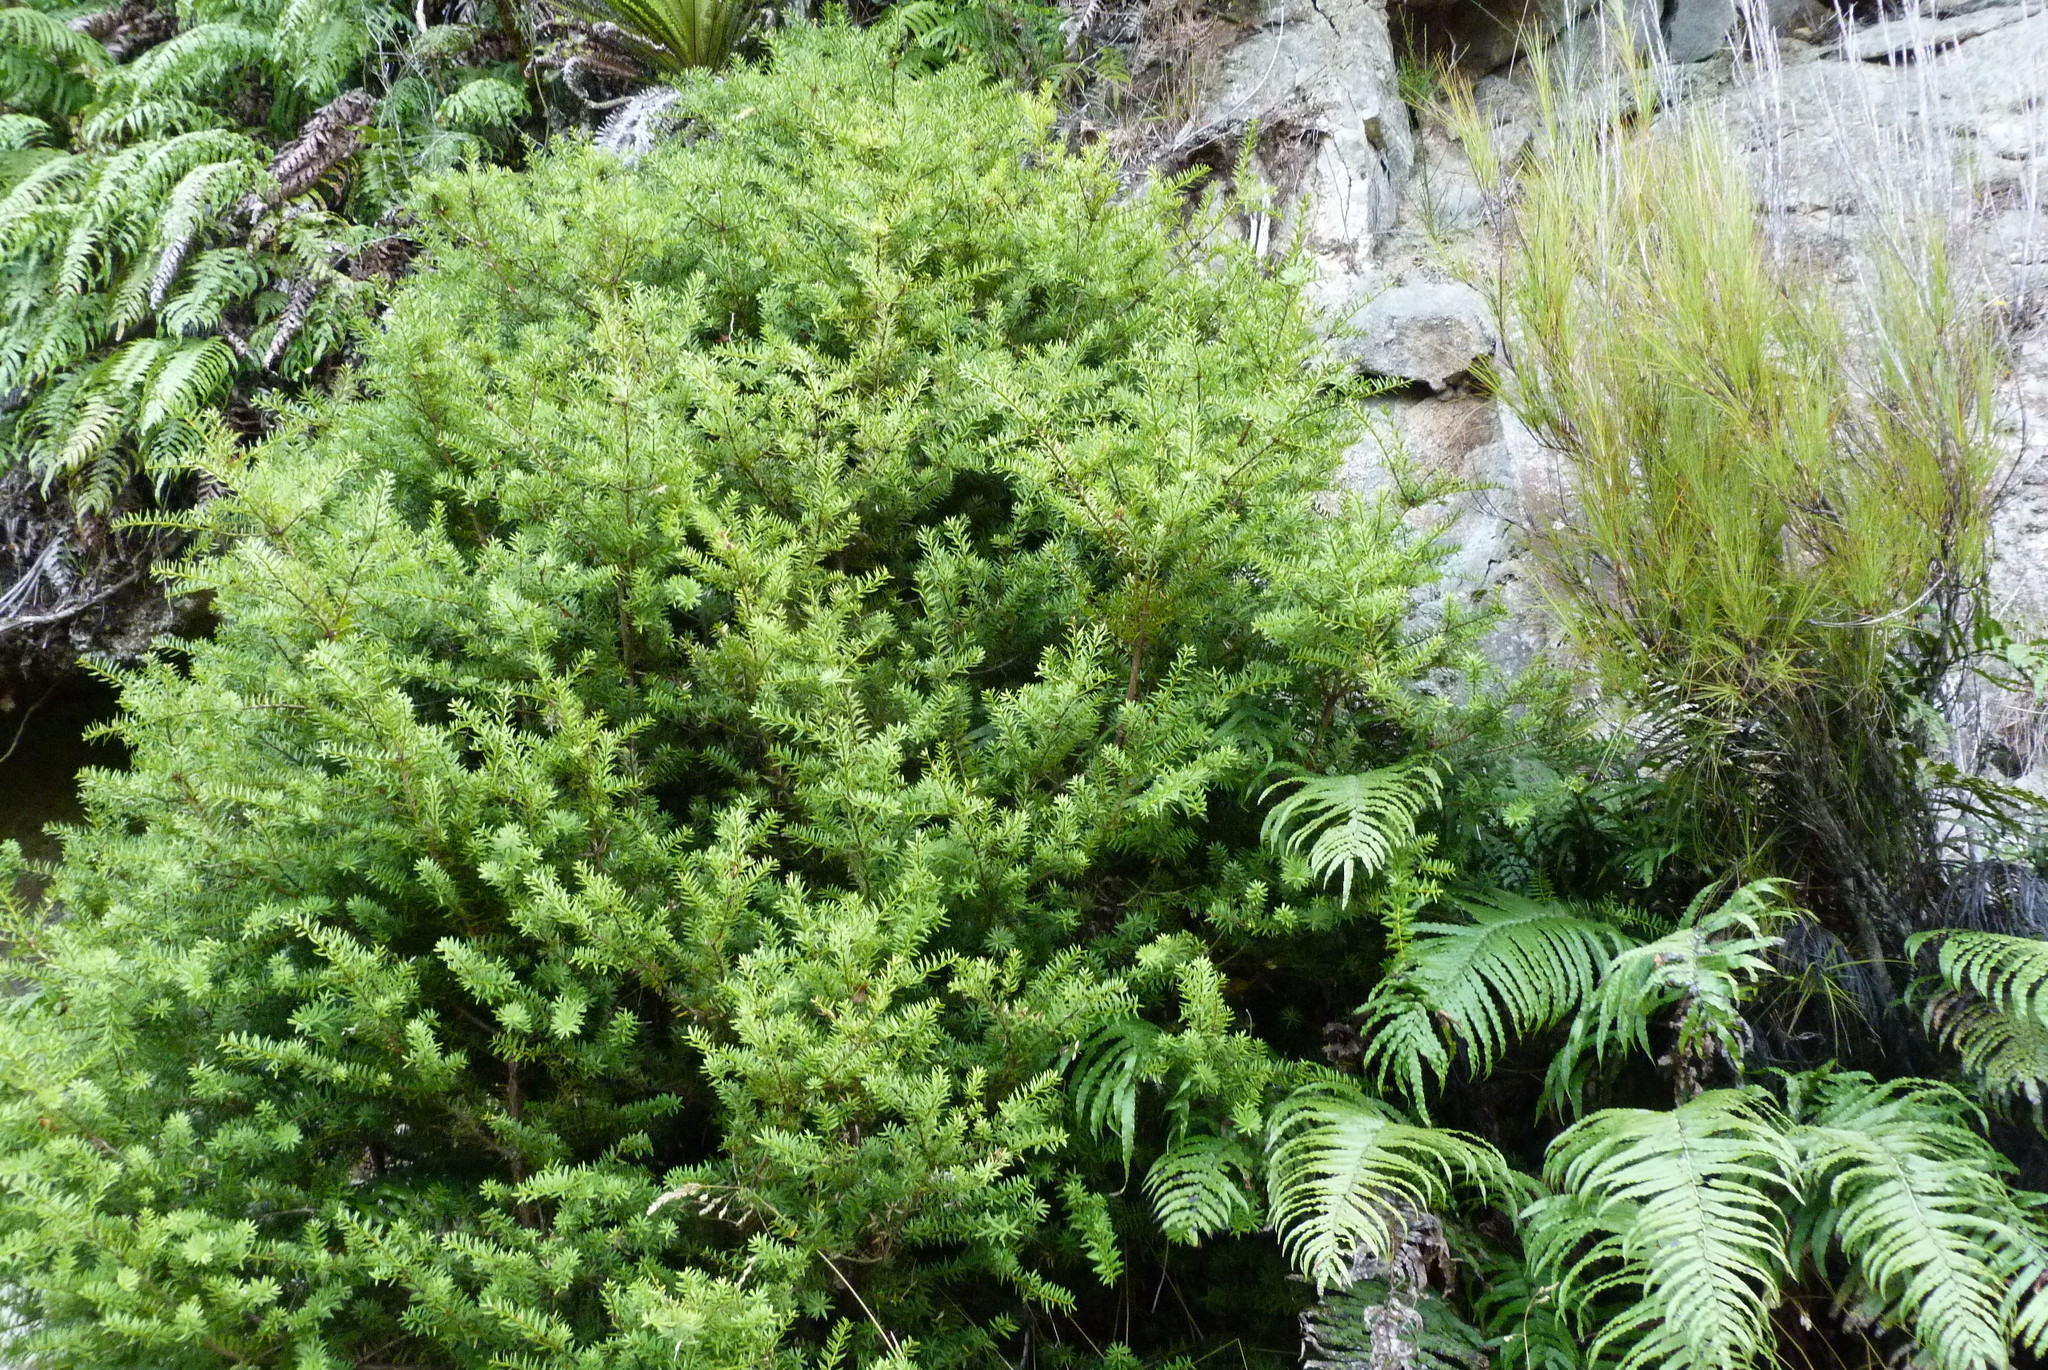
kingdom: Plantae
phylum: Tracheophyta
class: Polypodiopsida
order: Polypodiales
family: Blechnaceae
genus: Parablechnum
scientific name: Parablechnum novae-zelandiae
